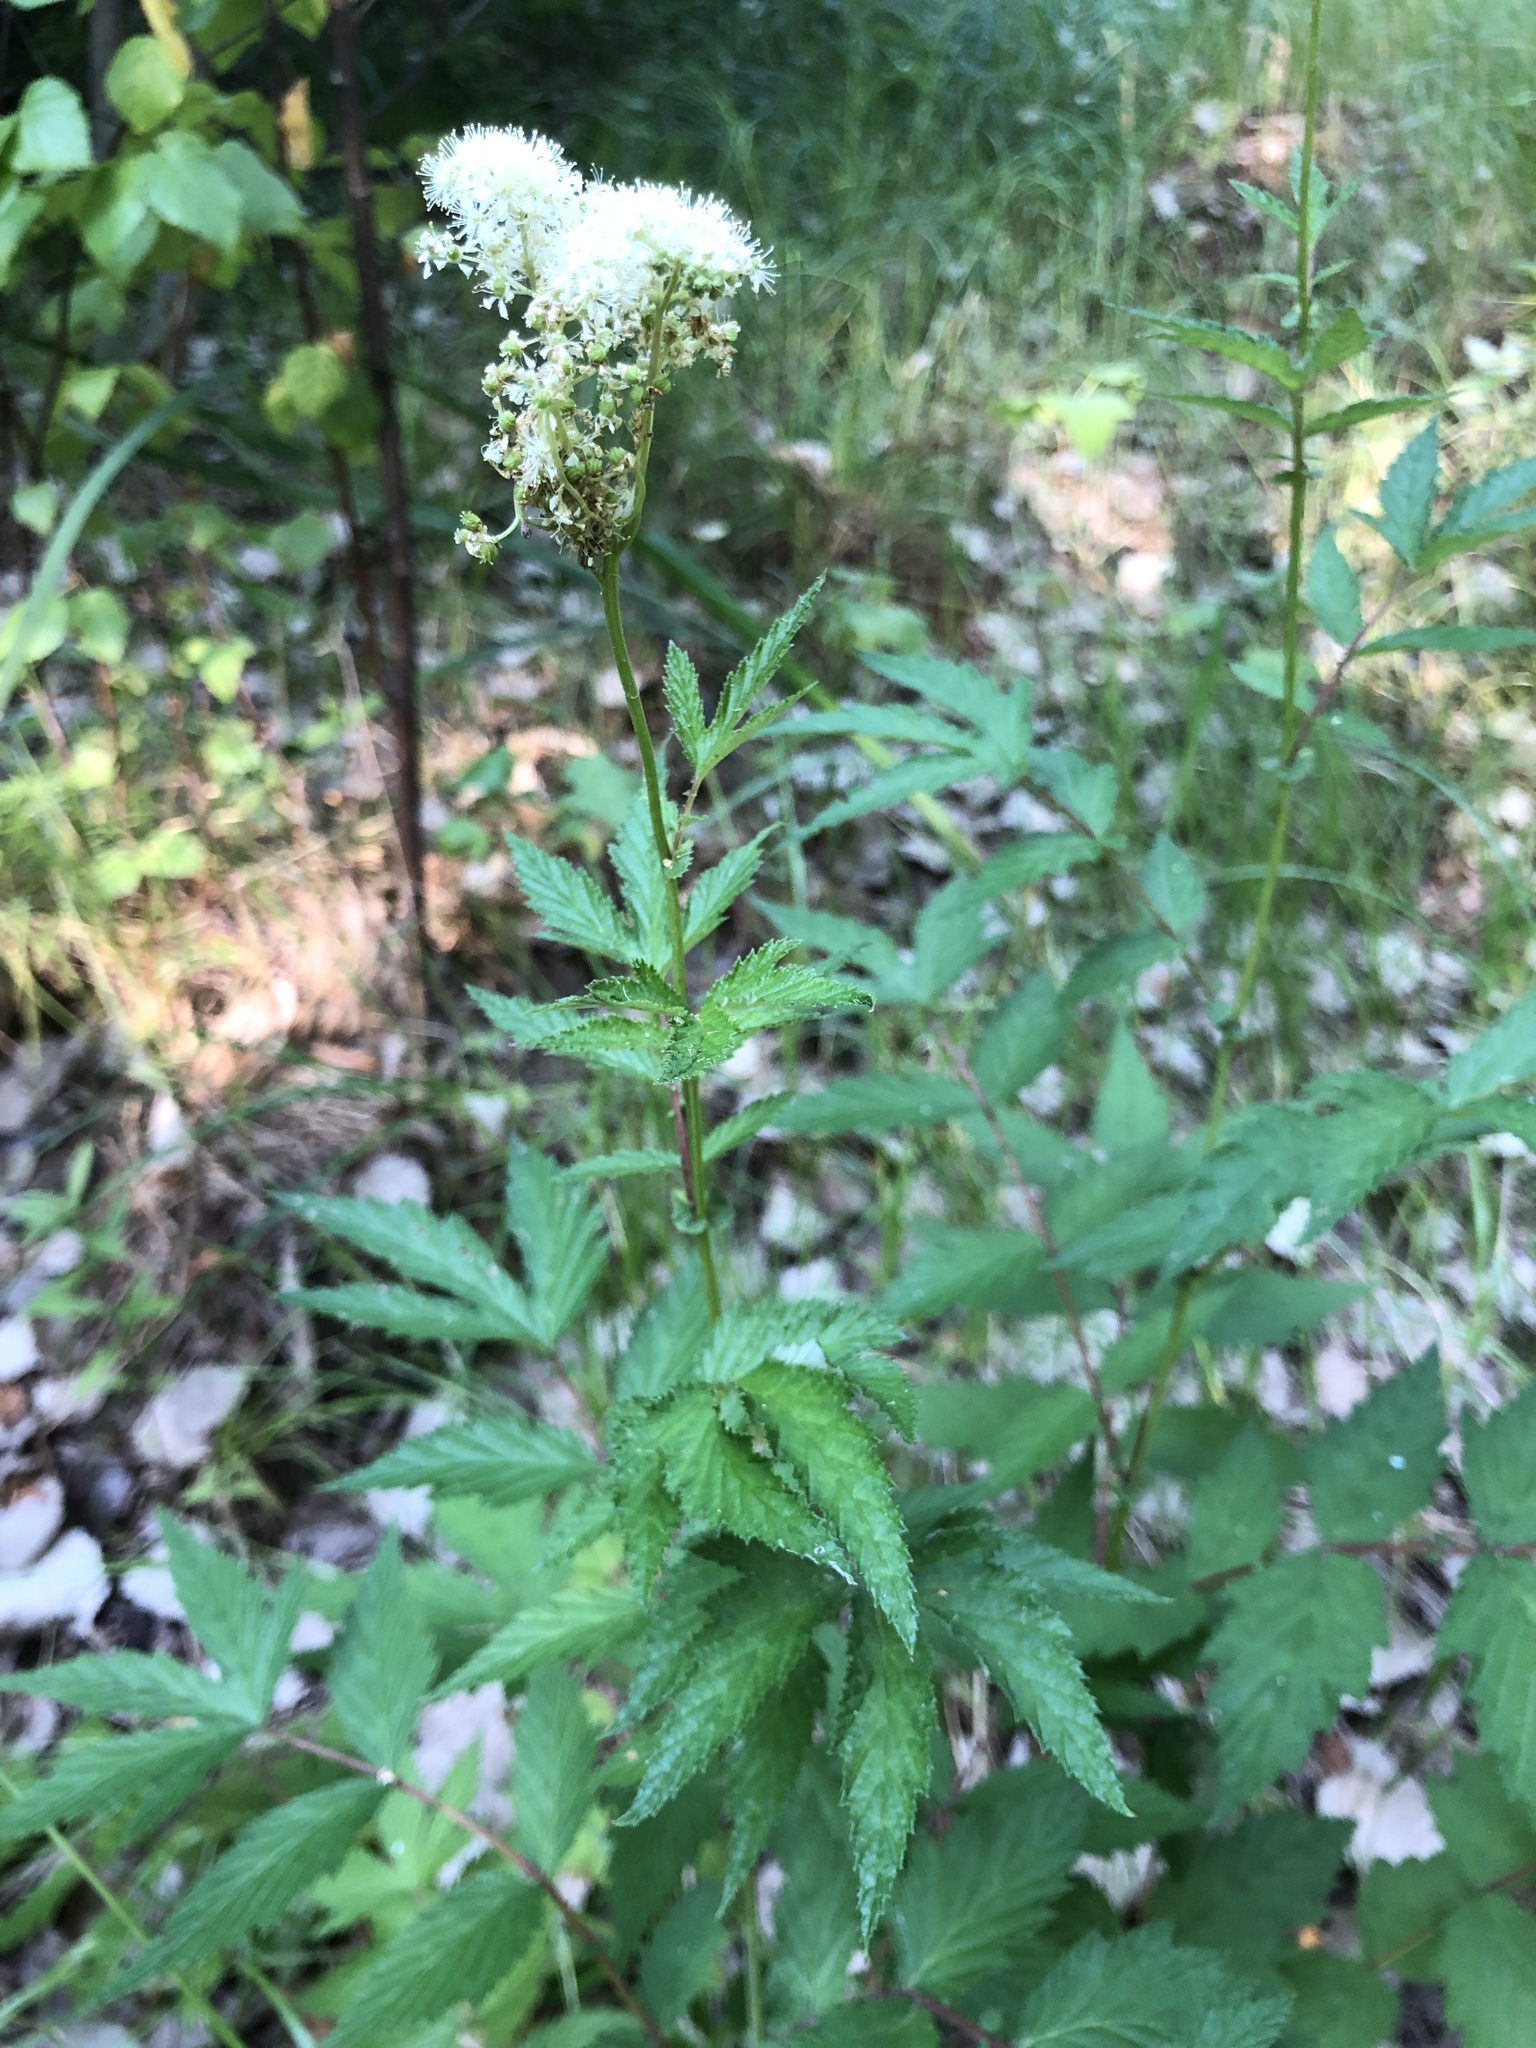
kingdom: Plantae
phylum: Tracheophyta
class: Magnoliopsida
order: Rosales
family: Rosaceae
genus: Filipendula
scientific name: Filipendula ulmaria
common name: Meadowsweet
